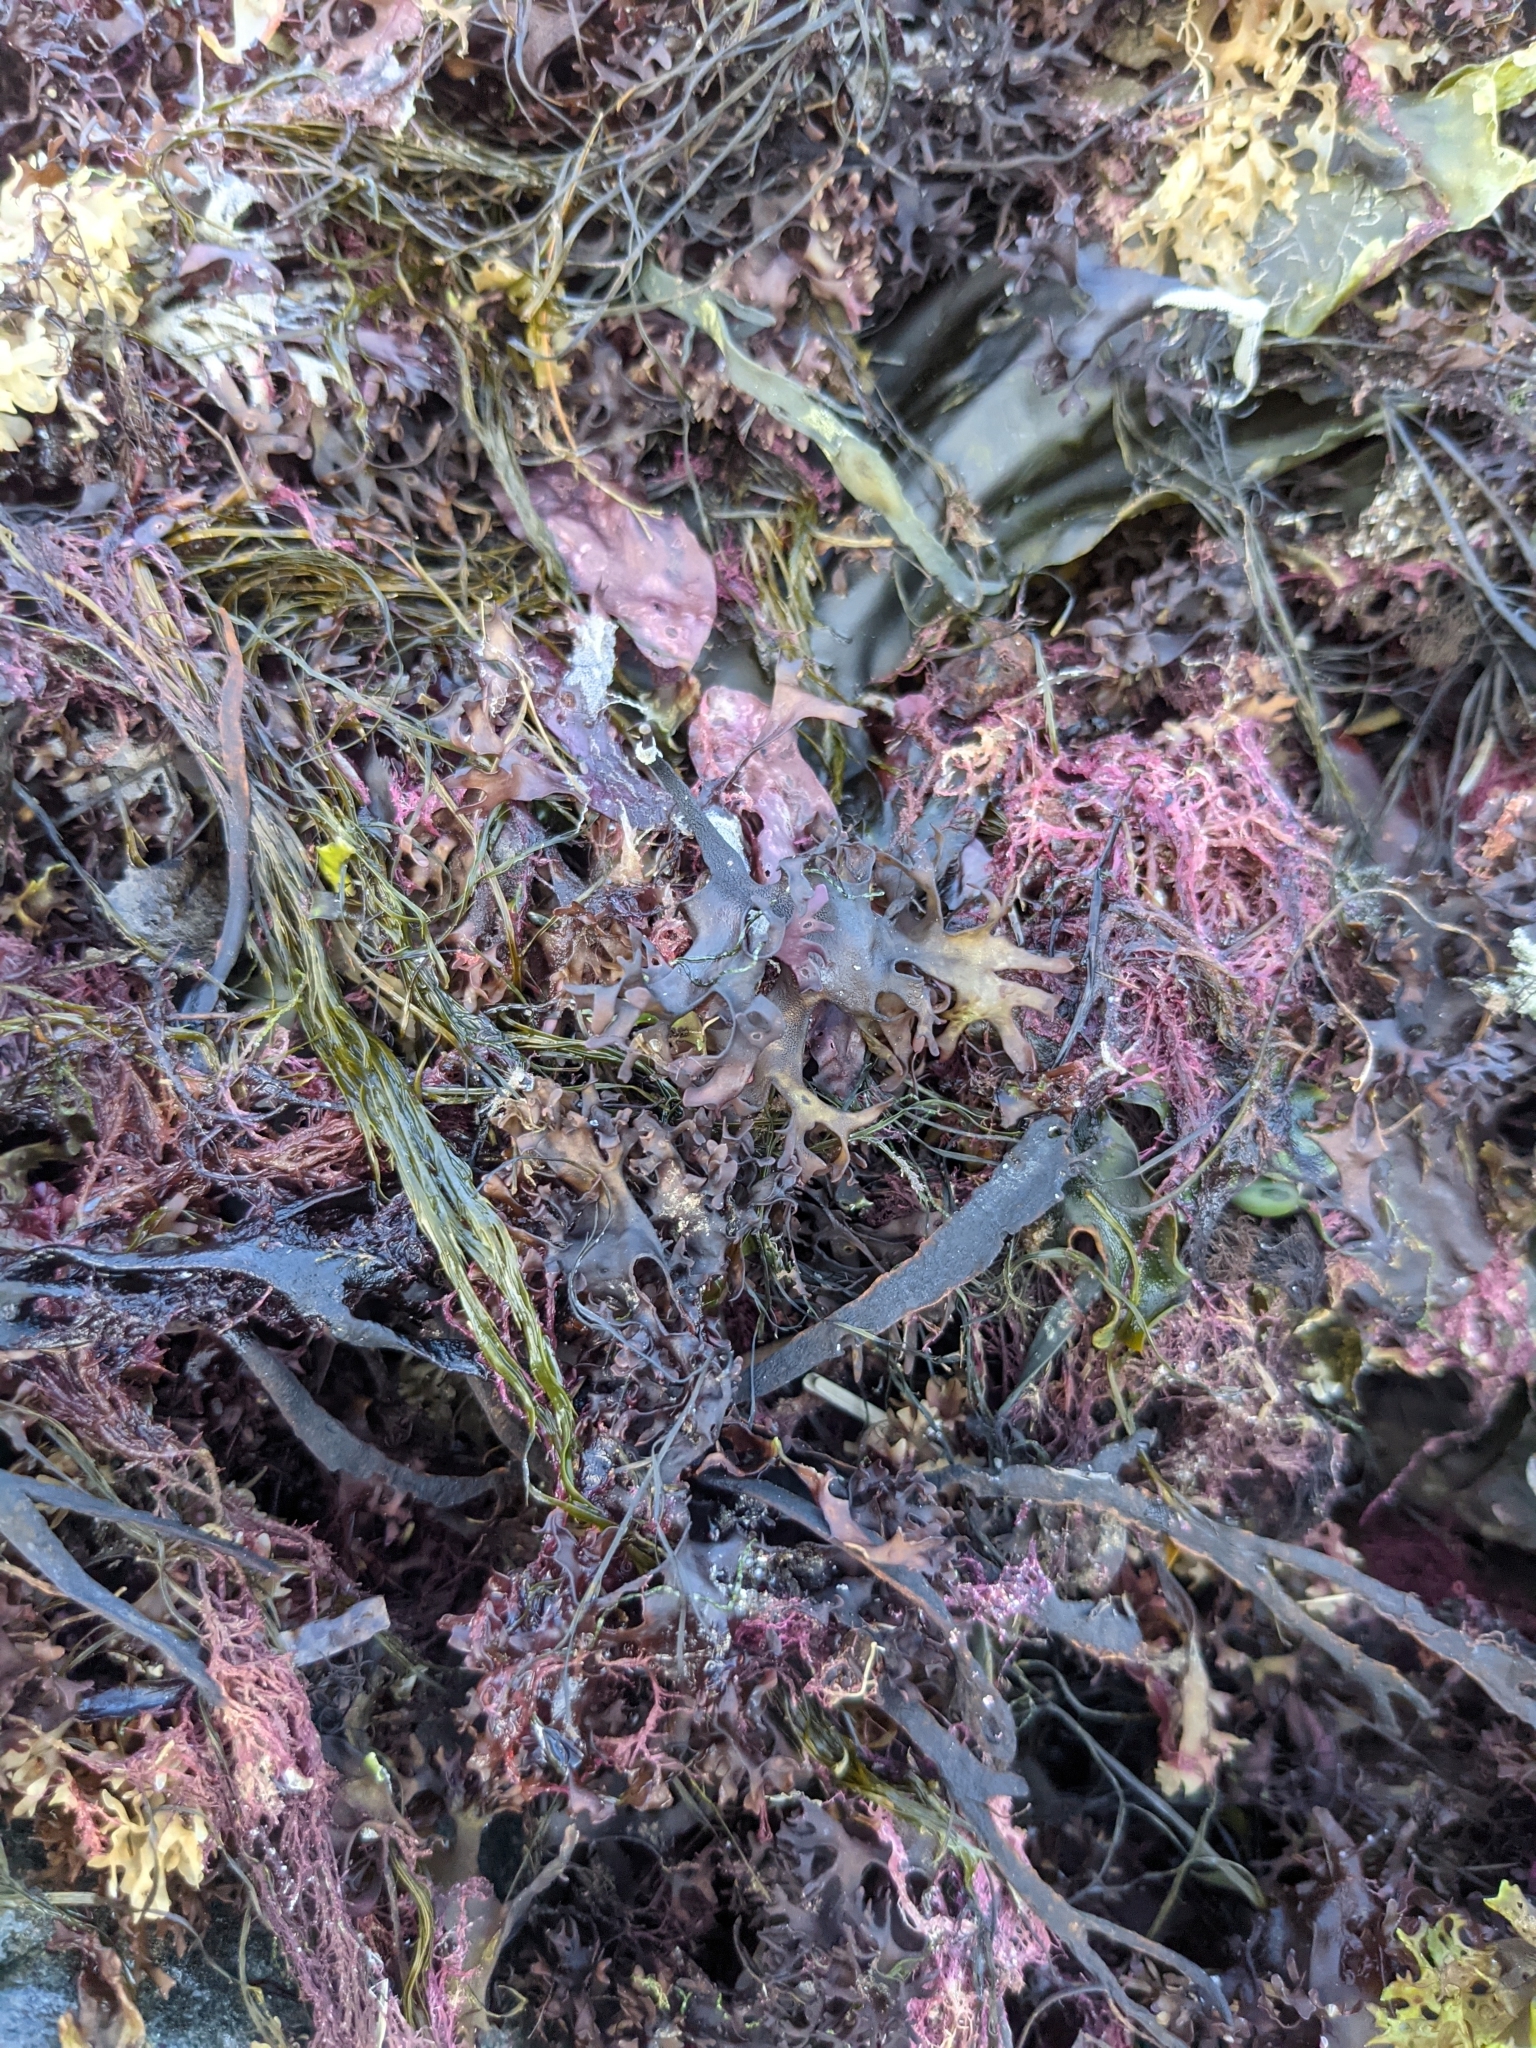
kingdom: Plantae
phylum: Rhodophyta
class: Florideophyceae
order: Gigartinales
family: Gigartinaceae
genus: Chondrus
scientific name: Chondrus crispus
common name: Carrageen
